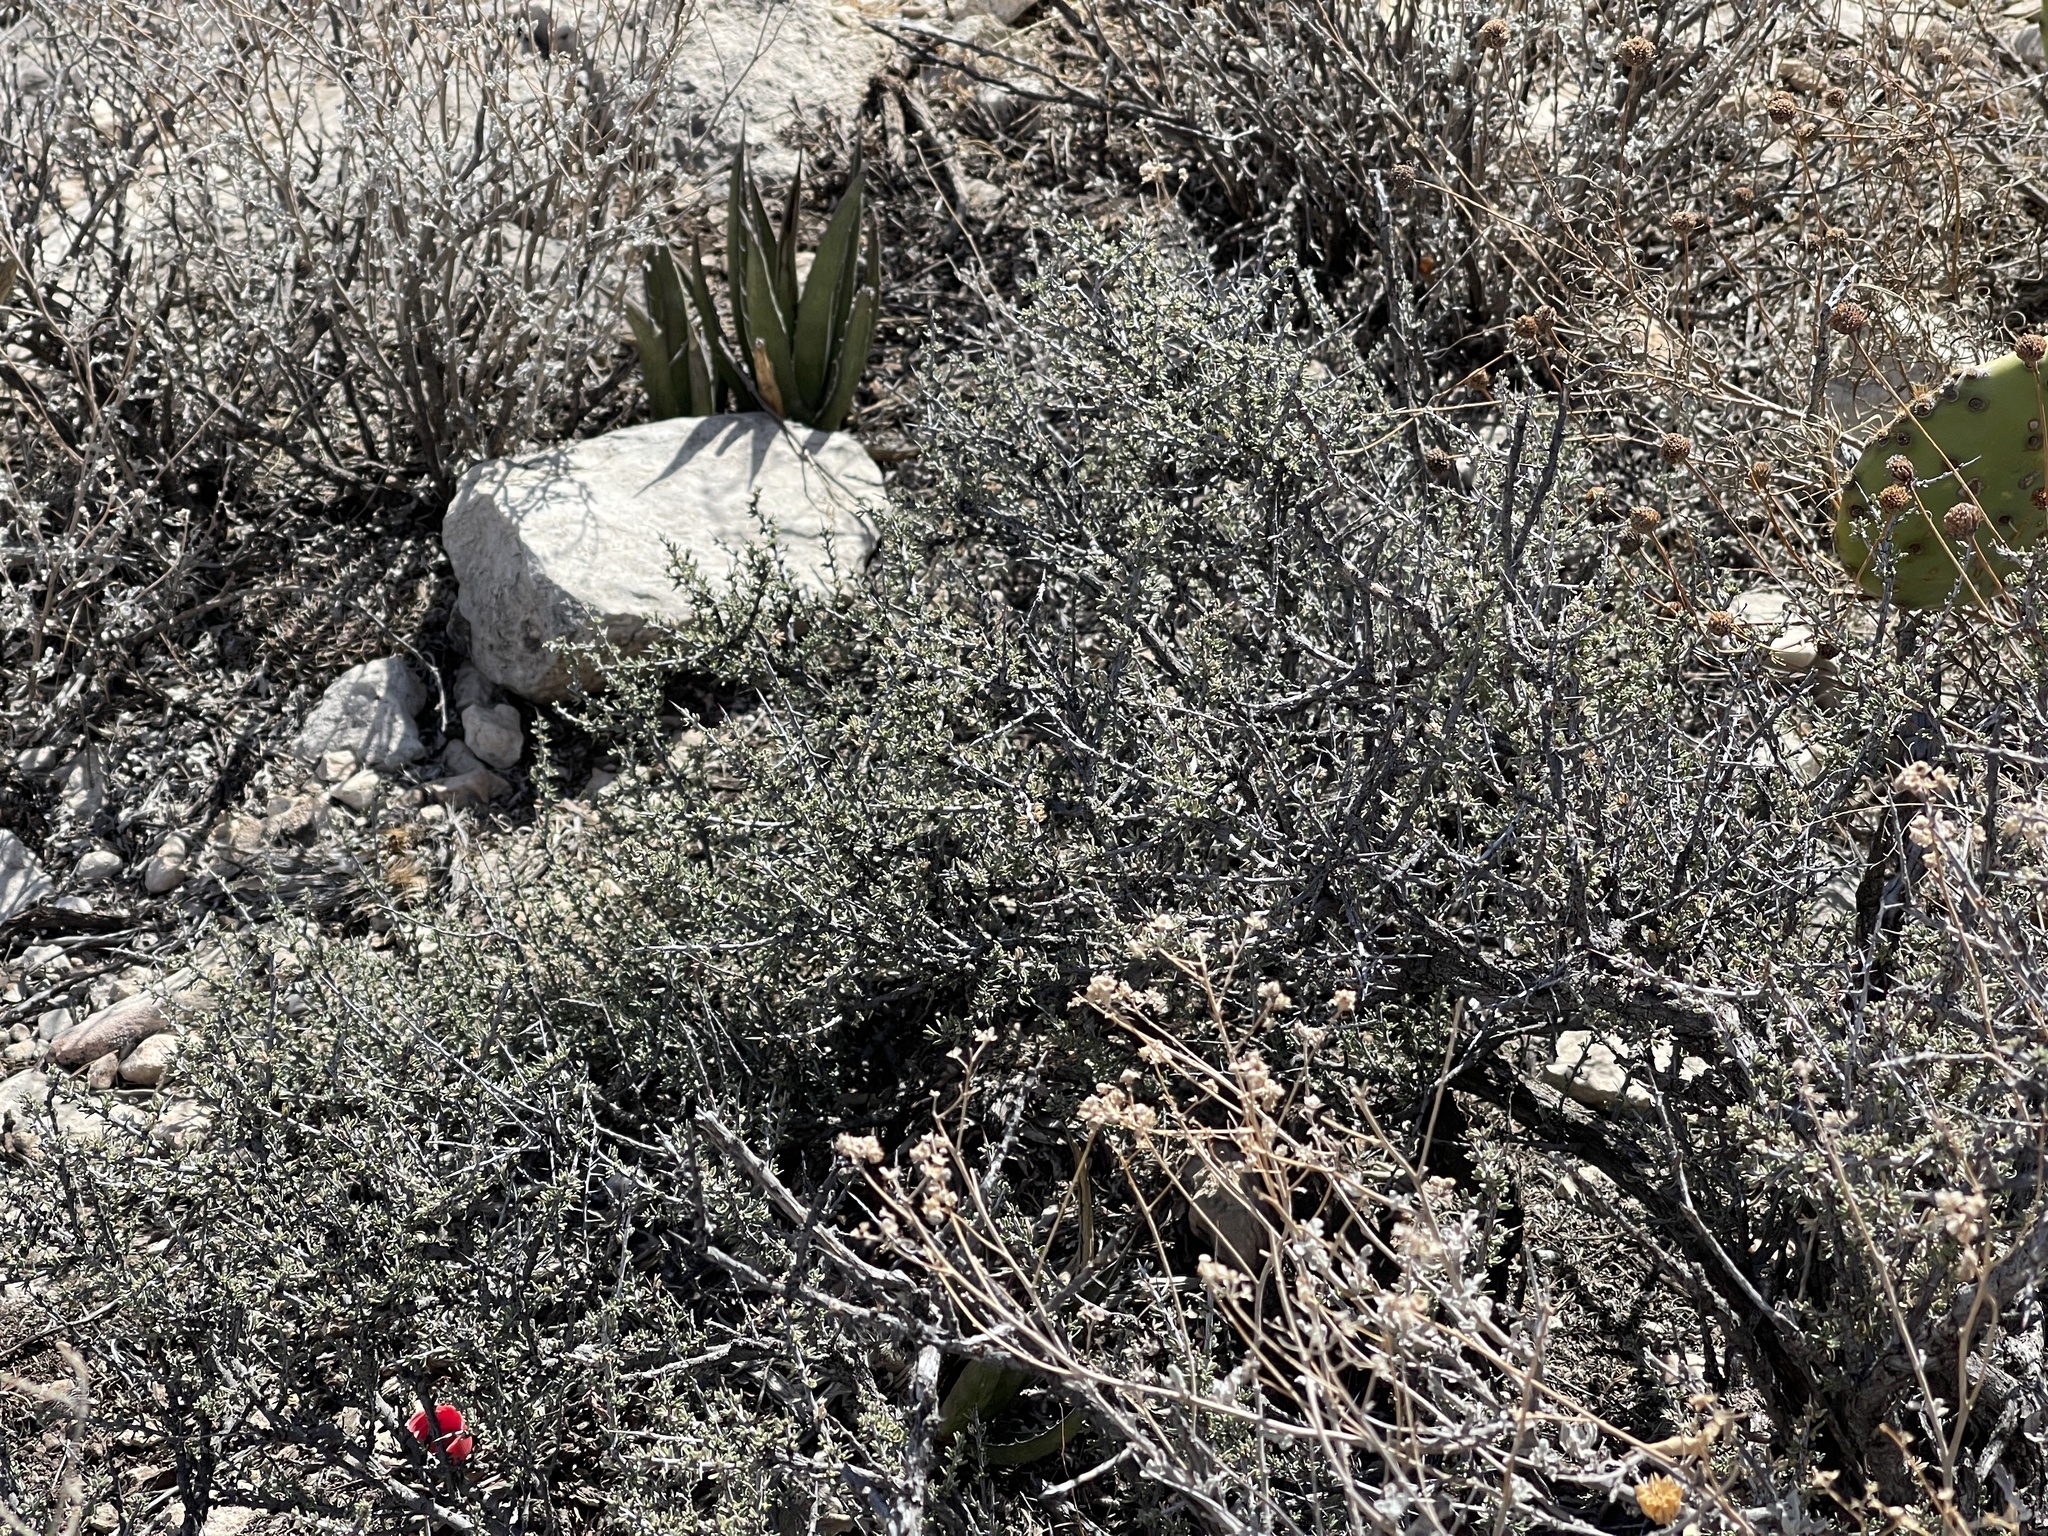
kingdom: Plantae
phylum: Tracheophyta
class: Magnoliopsida
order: Rosales
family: Rhamnaceae
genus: Condalia
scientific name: Condalia ericoides
